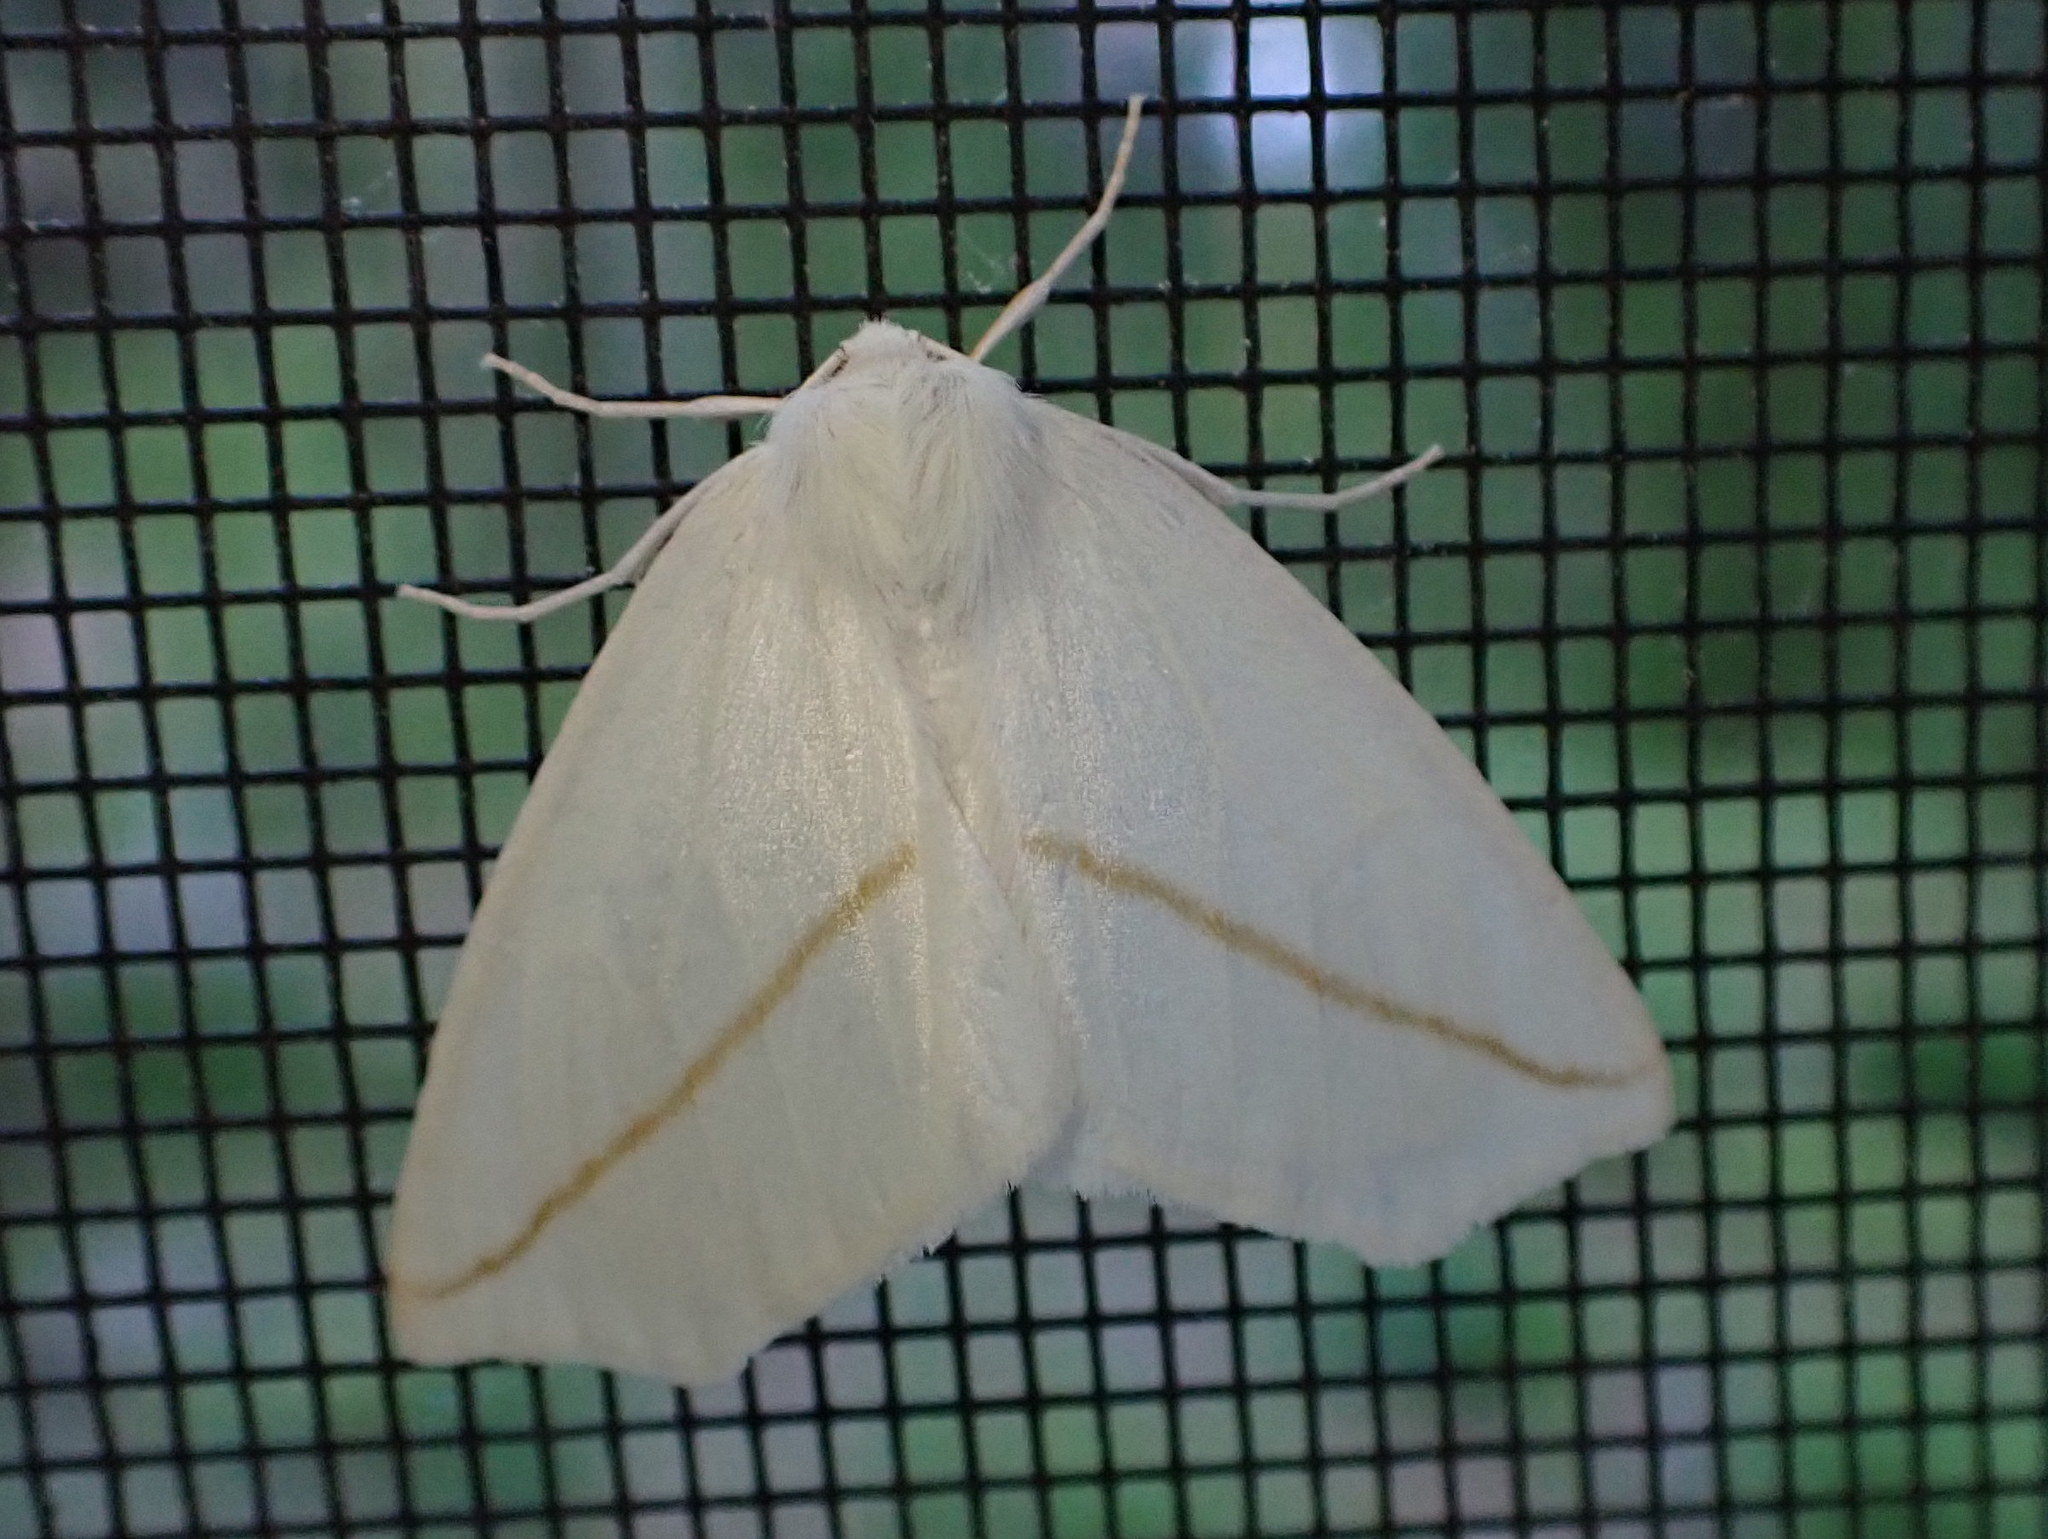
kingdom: Animalia
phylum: Arthropoda
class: Insecta
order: Lepidoptera
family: Geometridae
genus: Tetracis
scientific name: Tetracis cachexiata
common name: White slant-line
